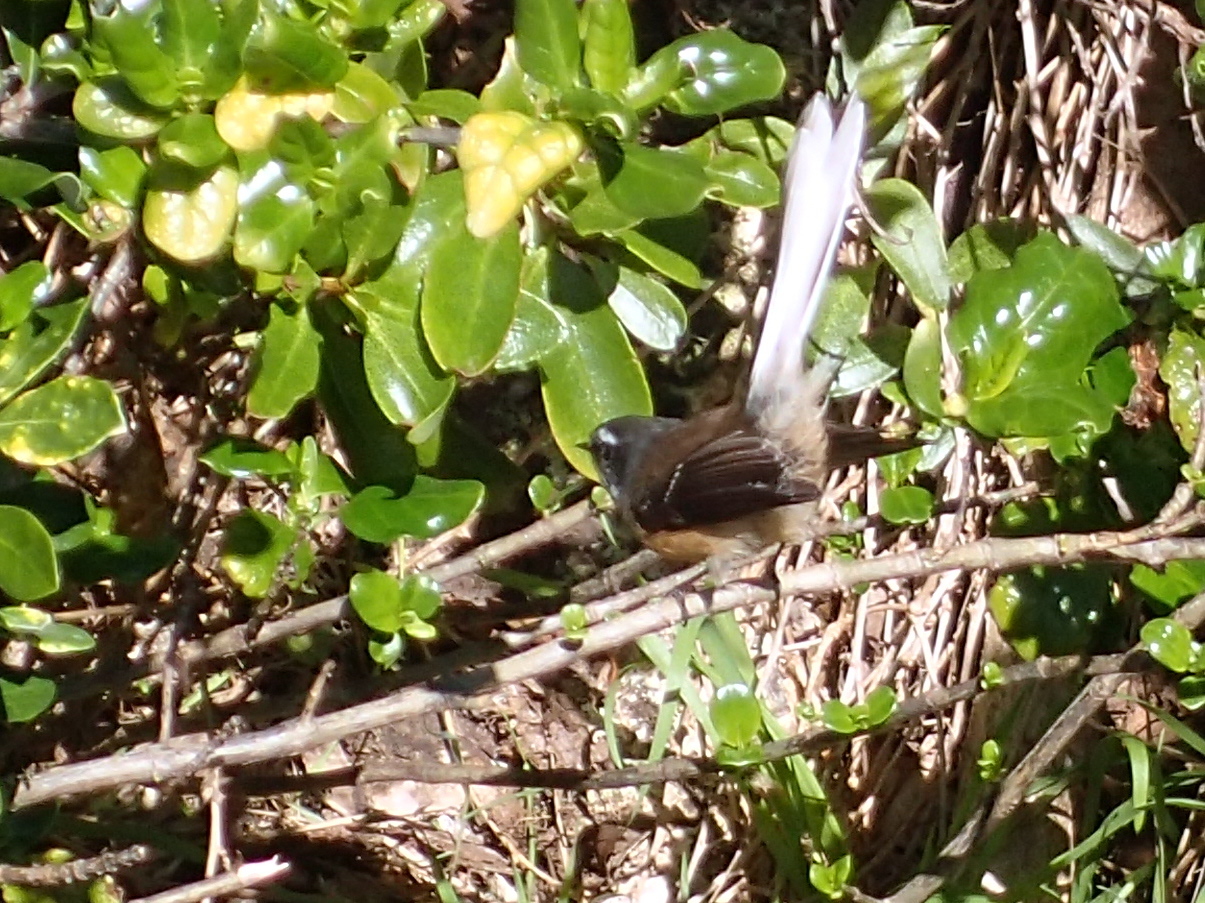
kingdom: Animalia
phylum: Chordata
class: Aves
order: Passeriformes
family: Rhipiduridae
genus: Rhipidura
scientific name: Rhipidura fuliginosa
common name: New zealand fantail
